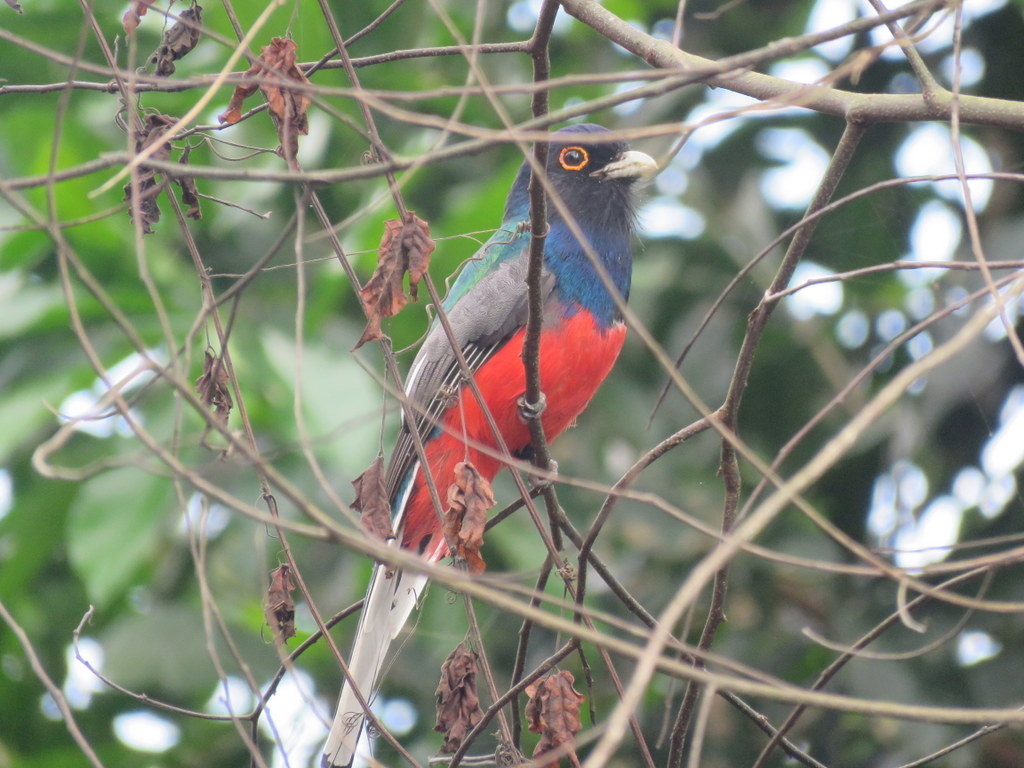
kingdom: Animalia
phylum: Chordata
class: Aves
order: Trogoniformes
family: Trogonidae
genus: Trogon
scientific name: Trogon surrucura
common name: Surucua trogon
